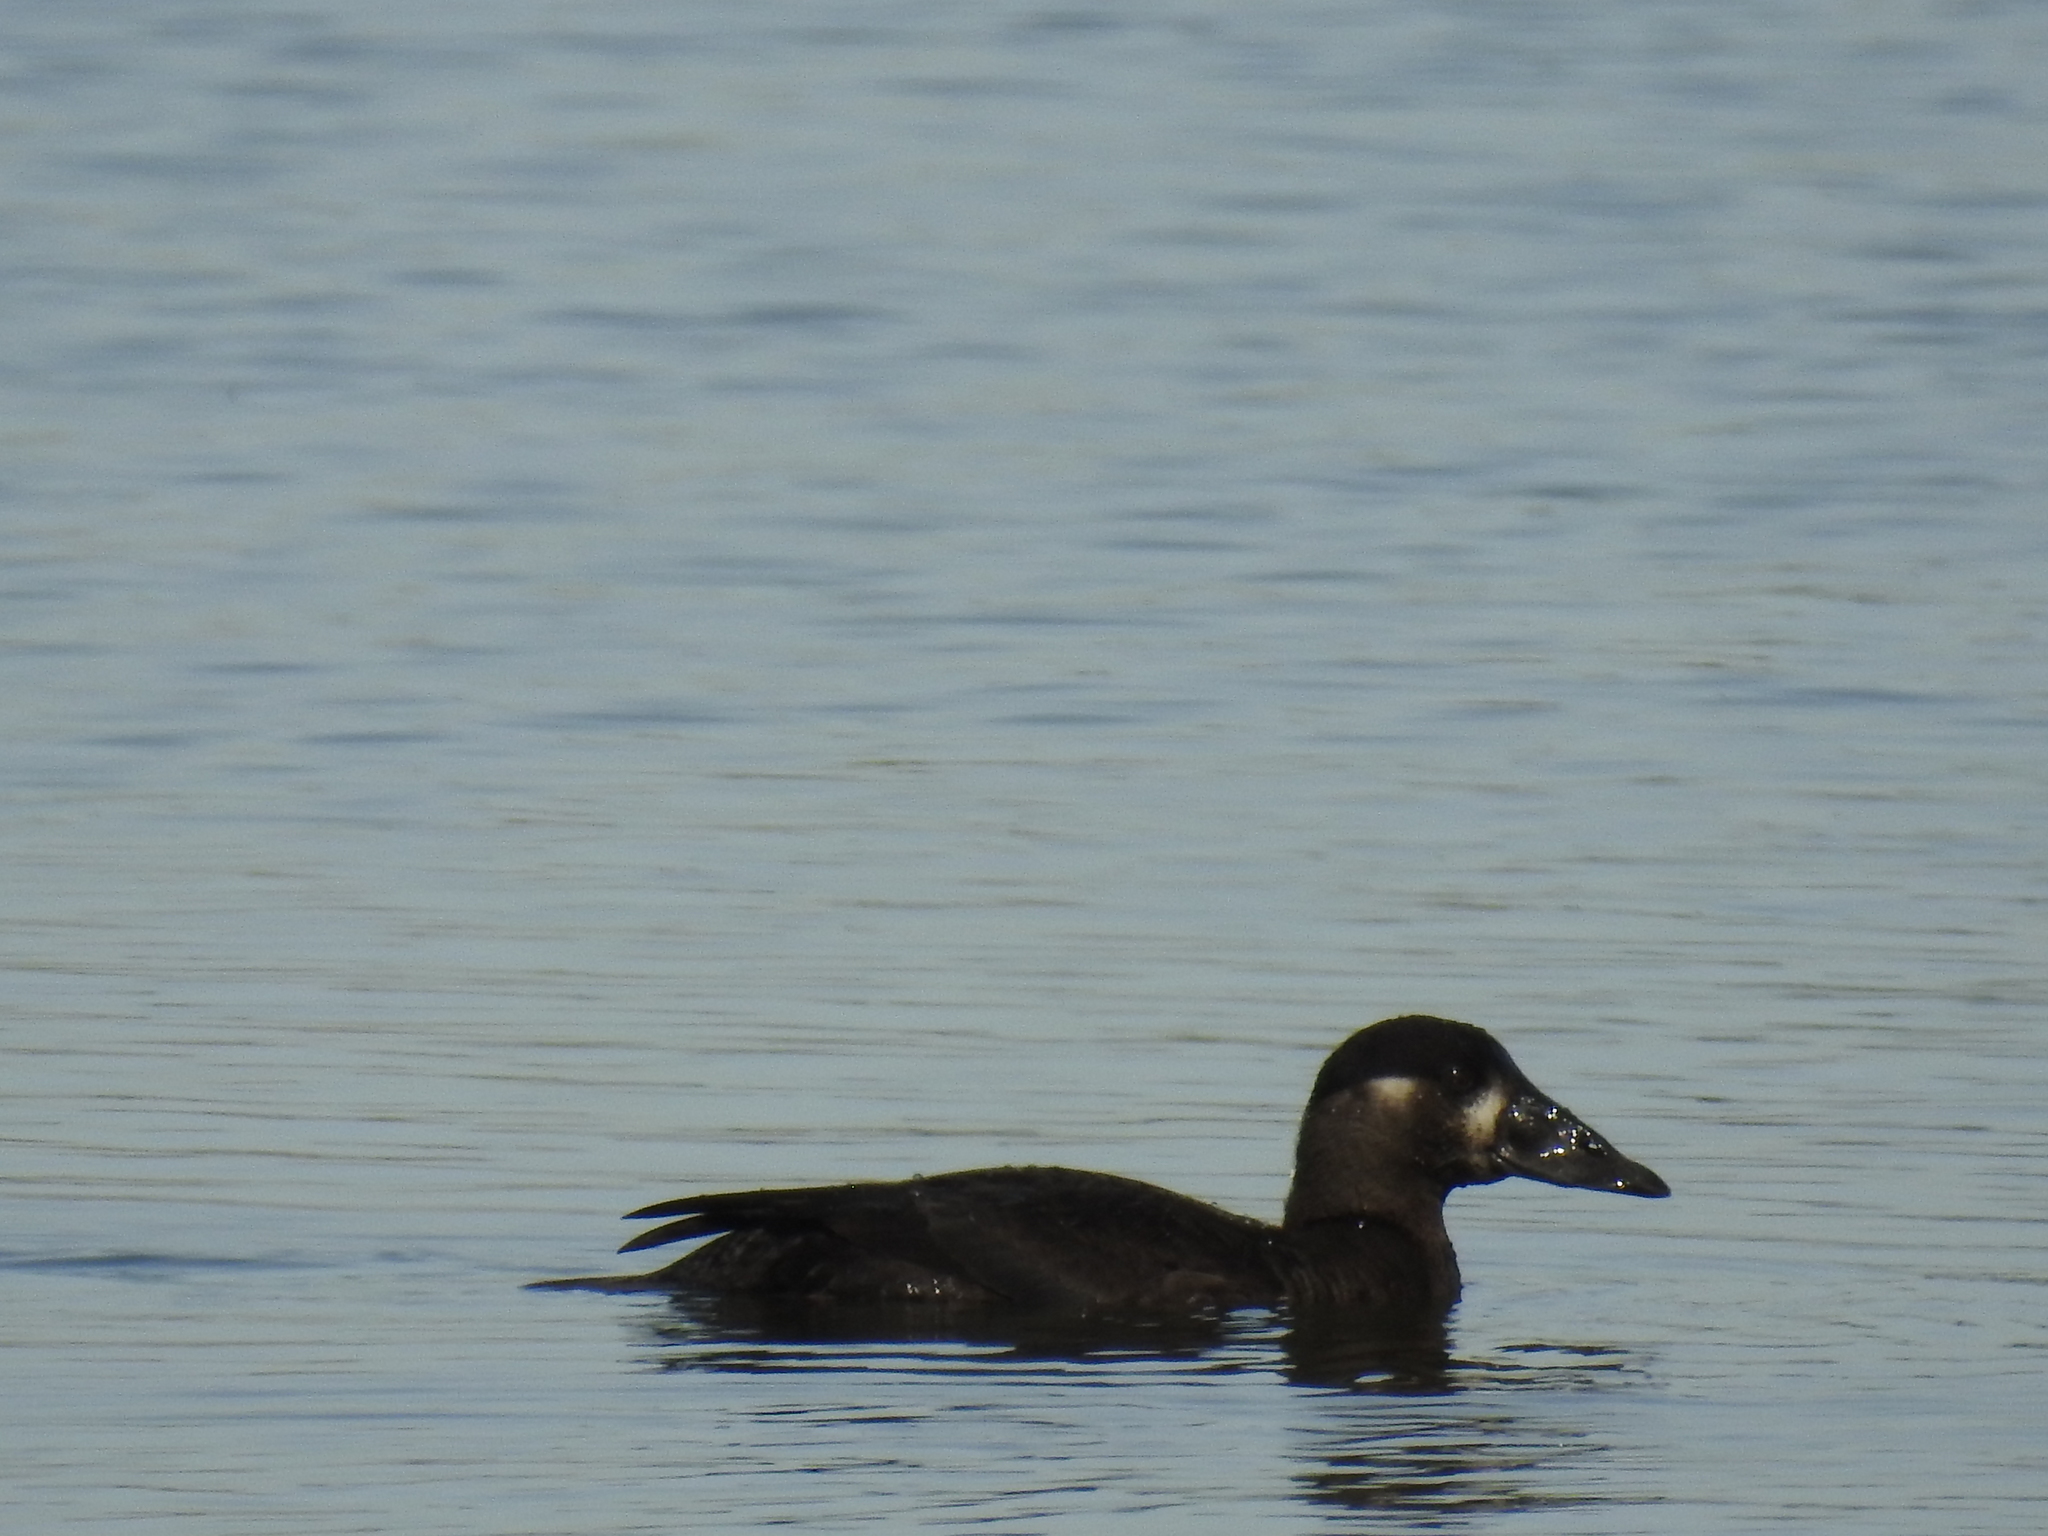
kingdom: Animalia
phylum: Chordata
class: Aves
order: Anseriformes
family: Anatidae
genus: Melanitta
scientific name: Melanitta perspicillata
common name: Surf scoter
